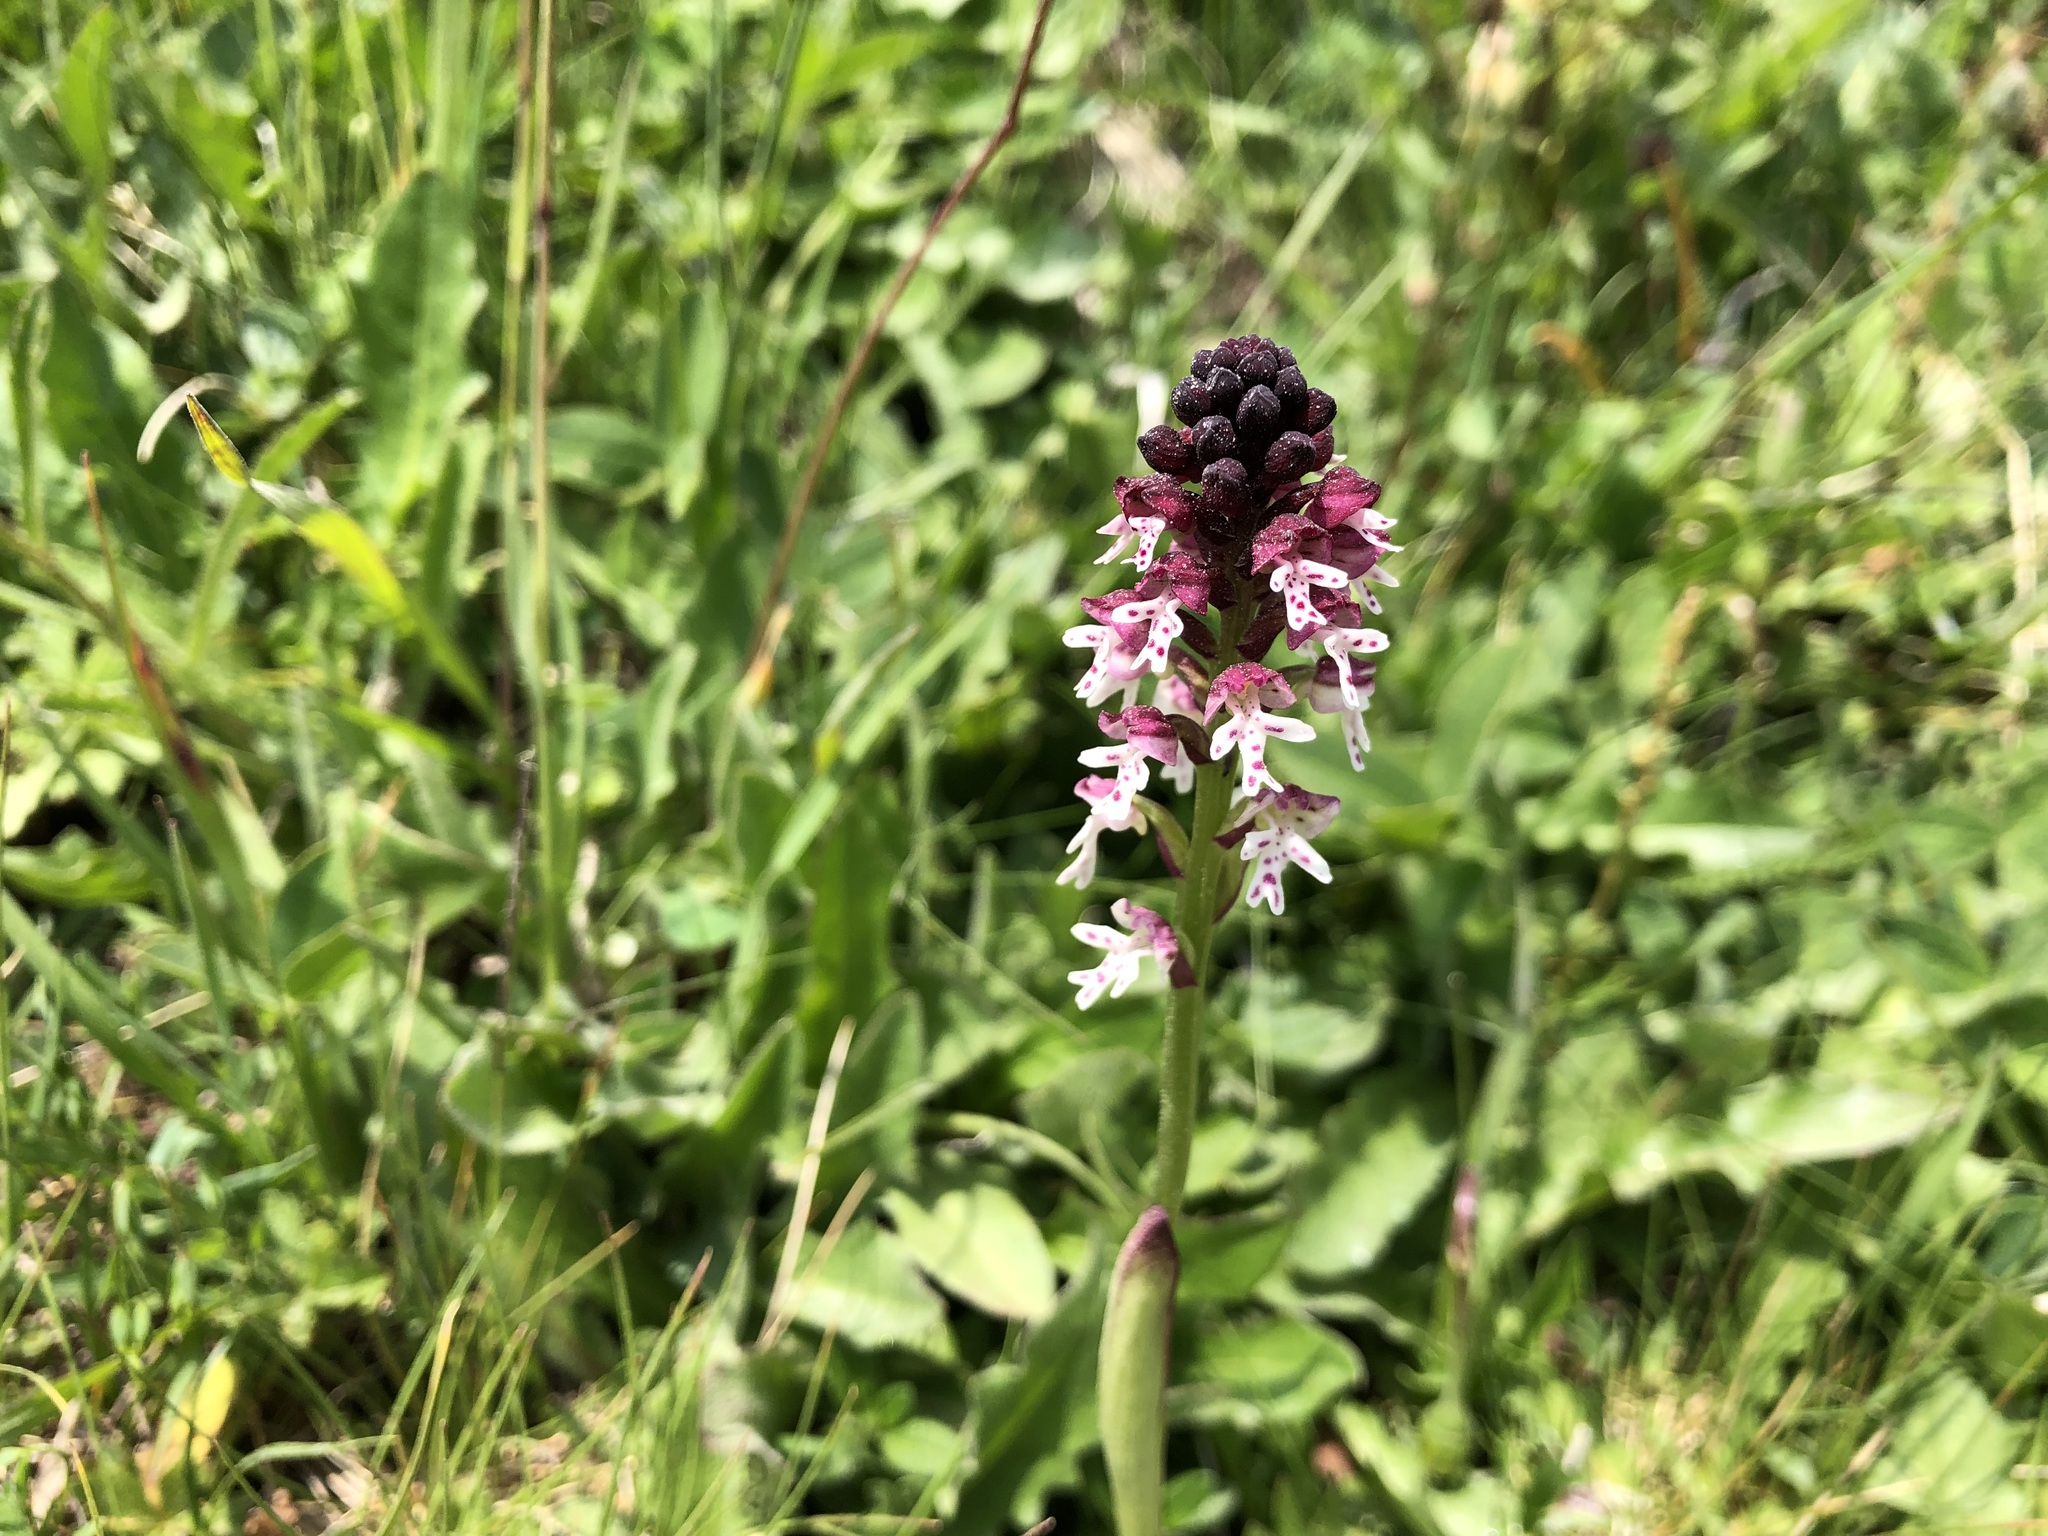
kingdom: Plantae
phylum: Tracheophyta
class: Liliopsida
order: Asparagales
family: Orchidaceae
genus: Neotinea
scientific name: Neotinea ustulata
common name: Burnt orchid
